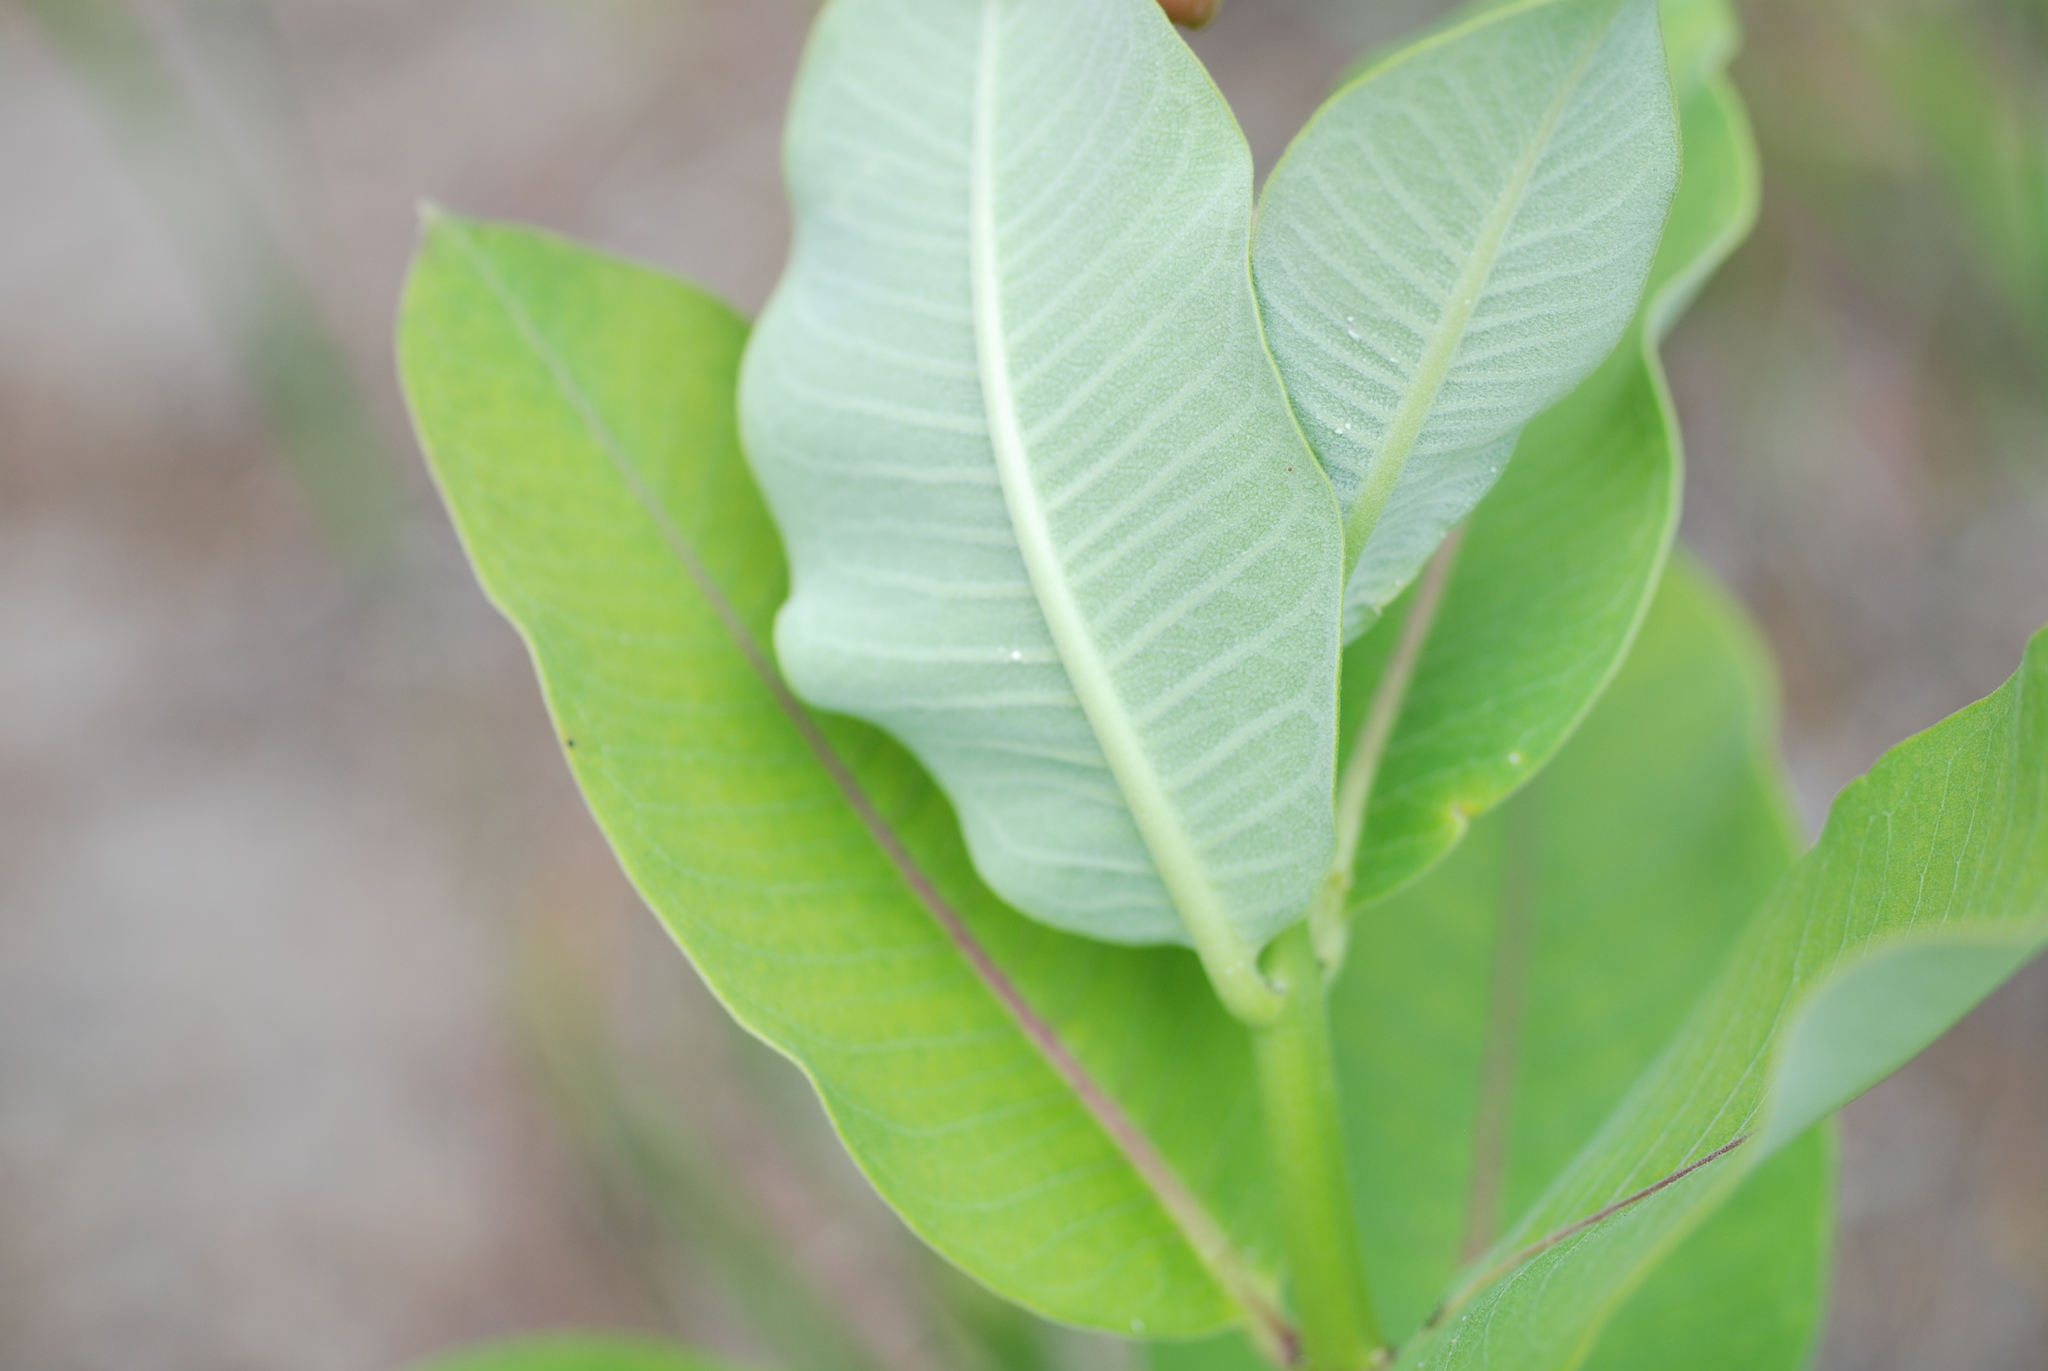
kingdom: Plantae
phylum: Tracheophyta
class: Magnoliopsida
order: Gentianales
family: Apocynaceae
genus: Asclepias
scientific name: Asclepias syriaca
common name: Common milkweed
